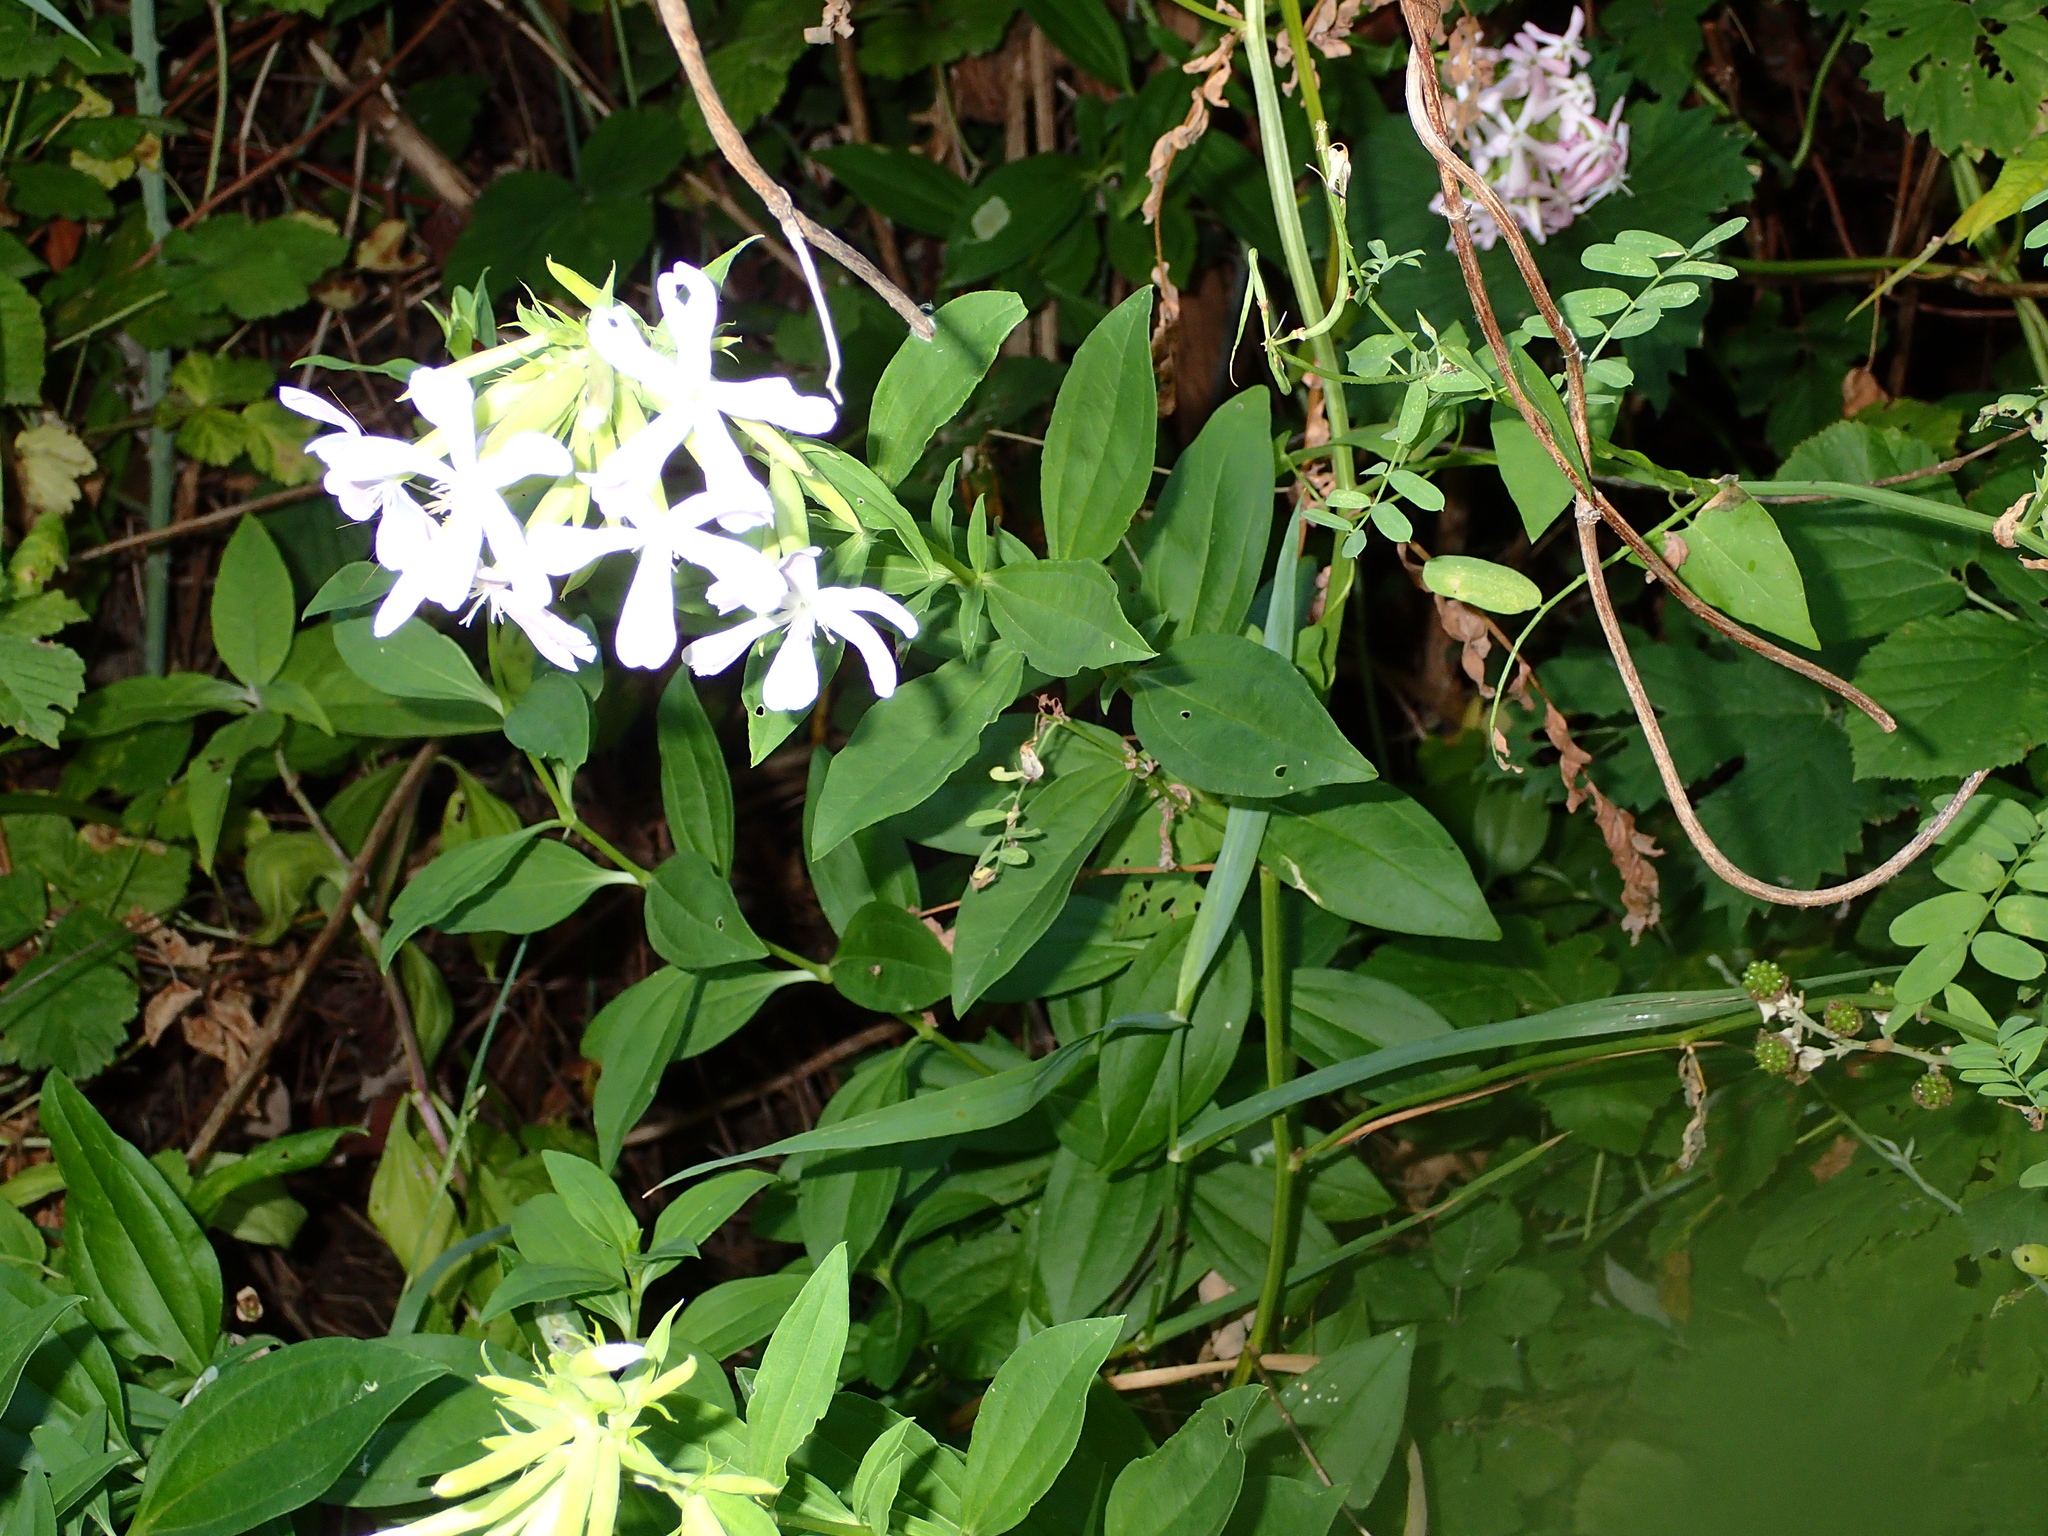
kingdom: Plantae
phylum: Tracheophyta
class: Magnoliopsida
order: Caryophyllales
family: Caryophyllaceae
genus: Saponaria
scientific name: Saponaria officinalis
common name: Soapwort
